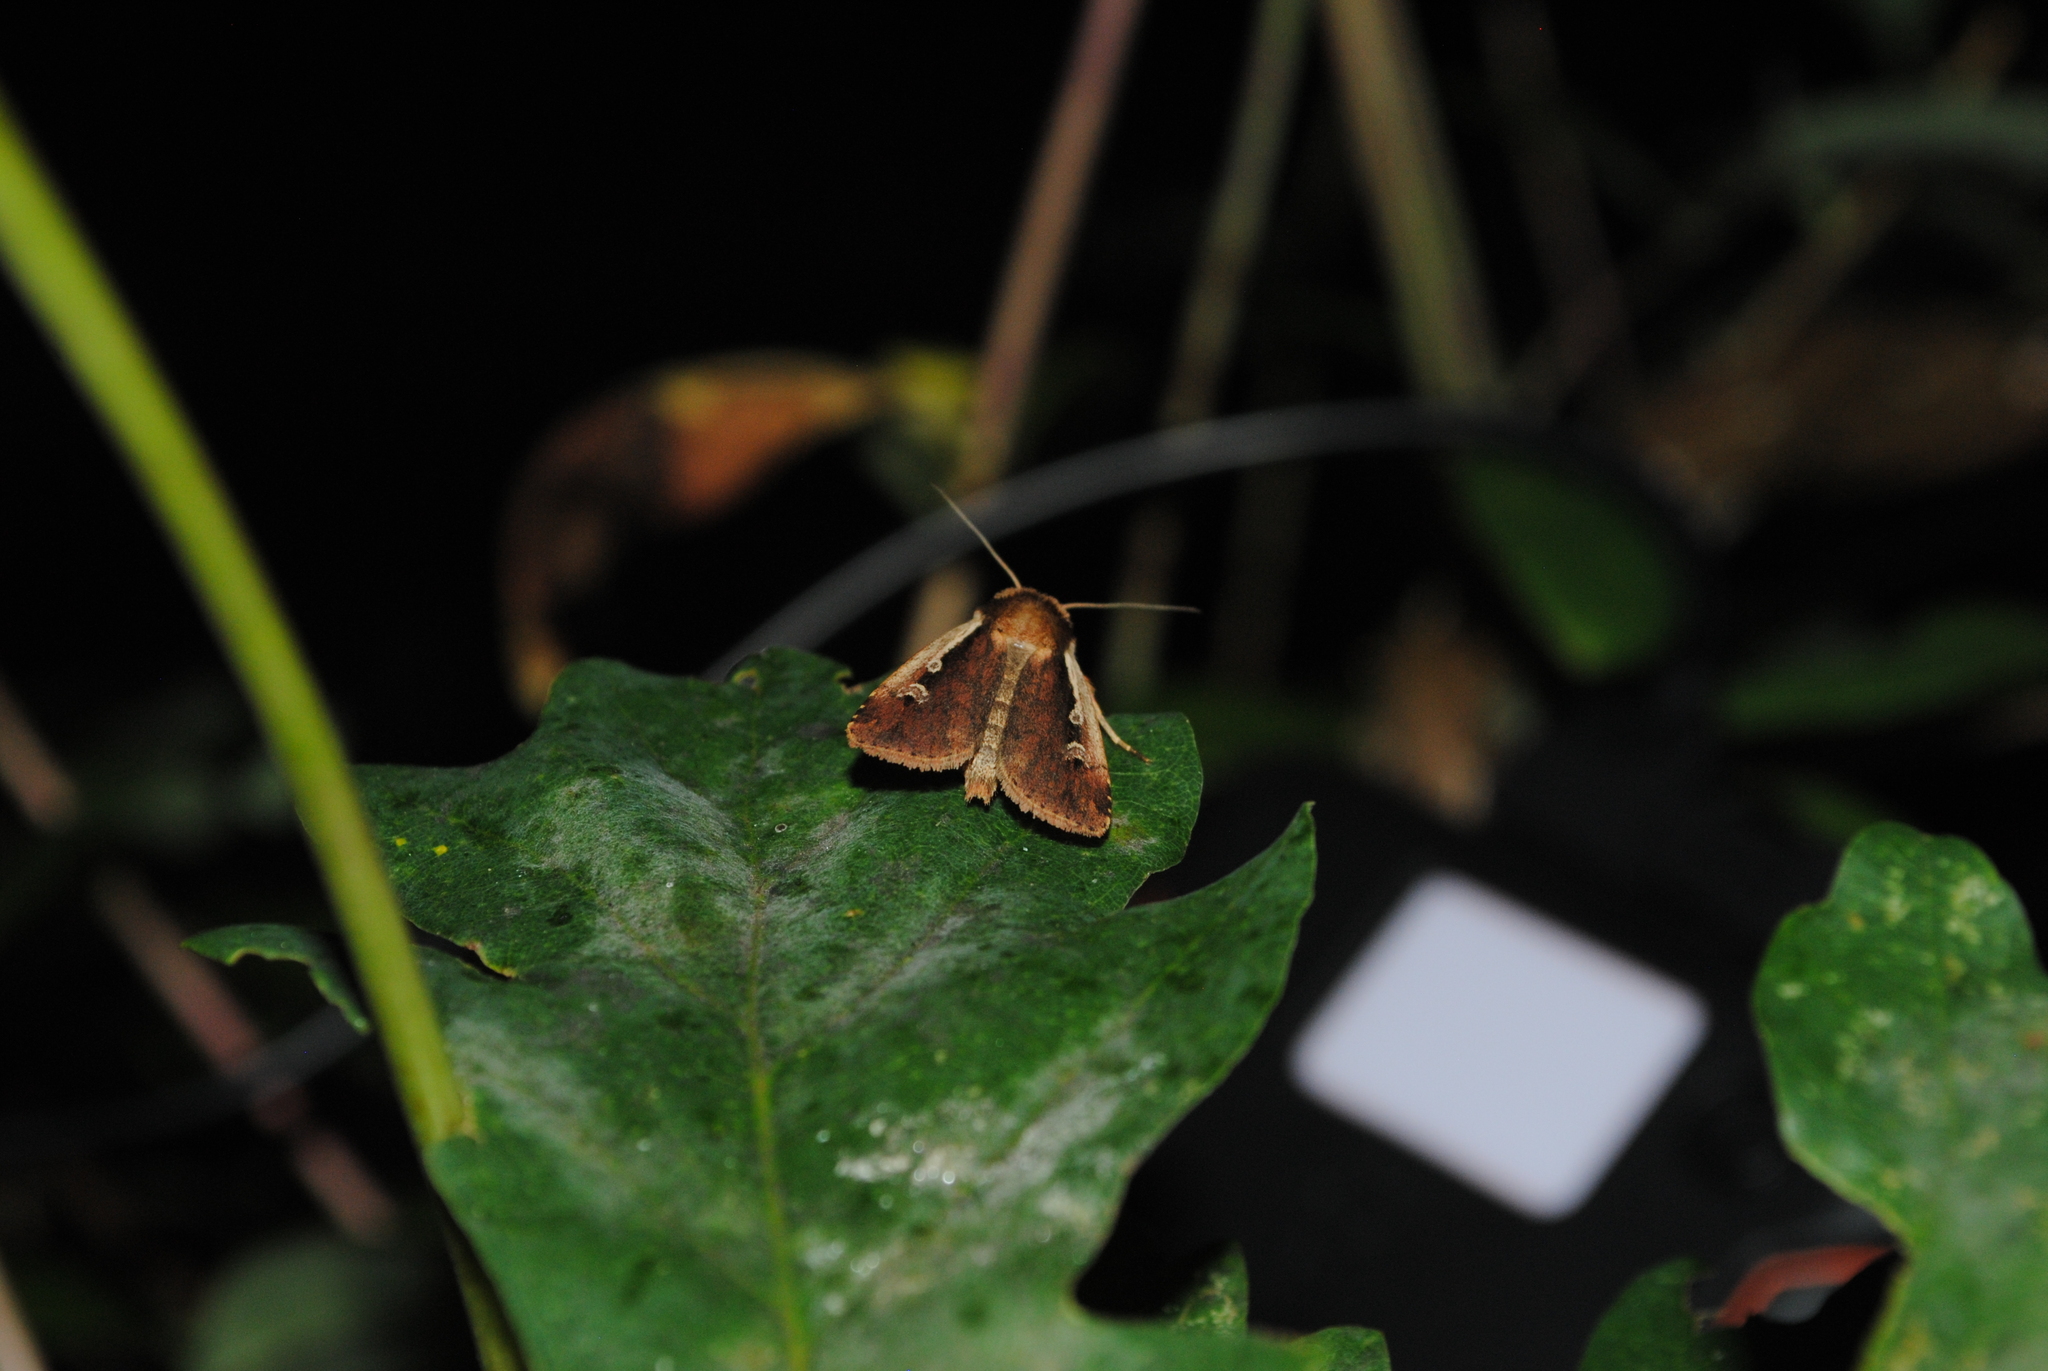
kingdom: Animalia
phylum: Arthropoda
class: Insecta
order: Lepidoptera
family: Noctuidae
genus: Ochropleura
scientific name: Ochropleura plecta
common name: Flame shoulder
